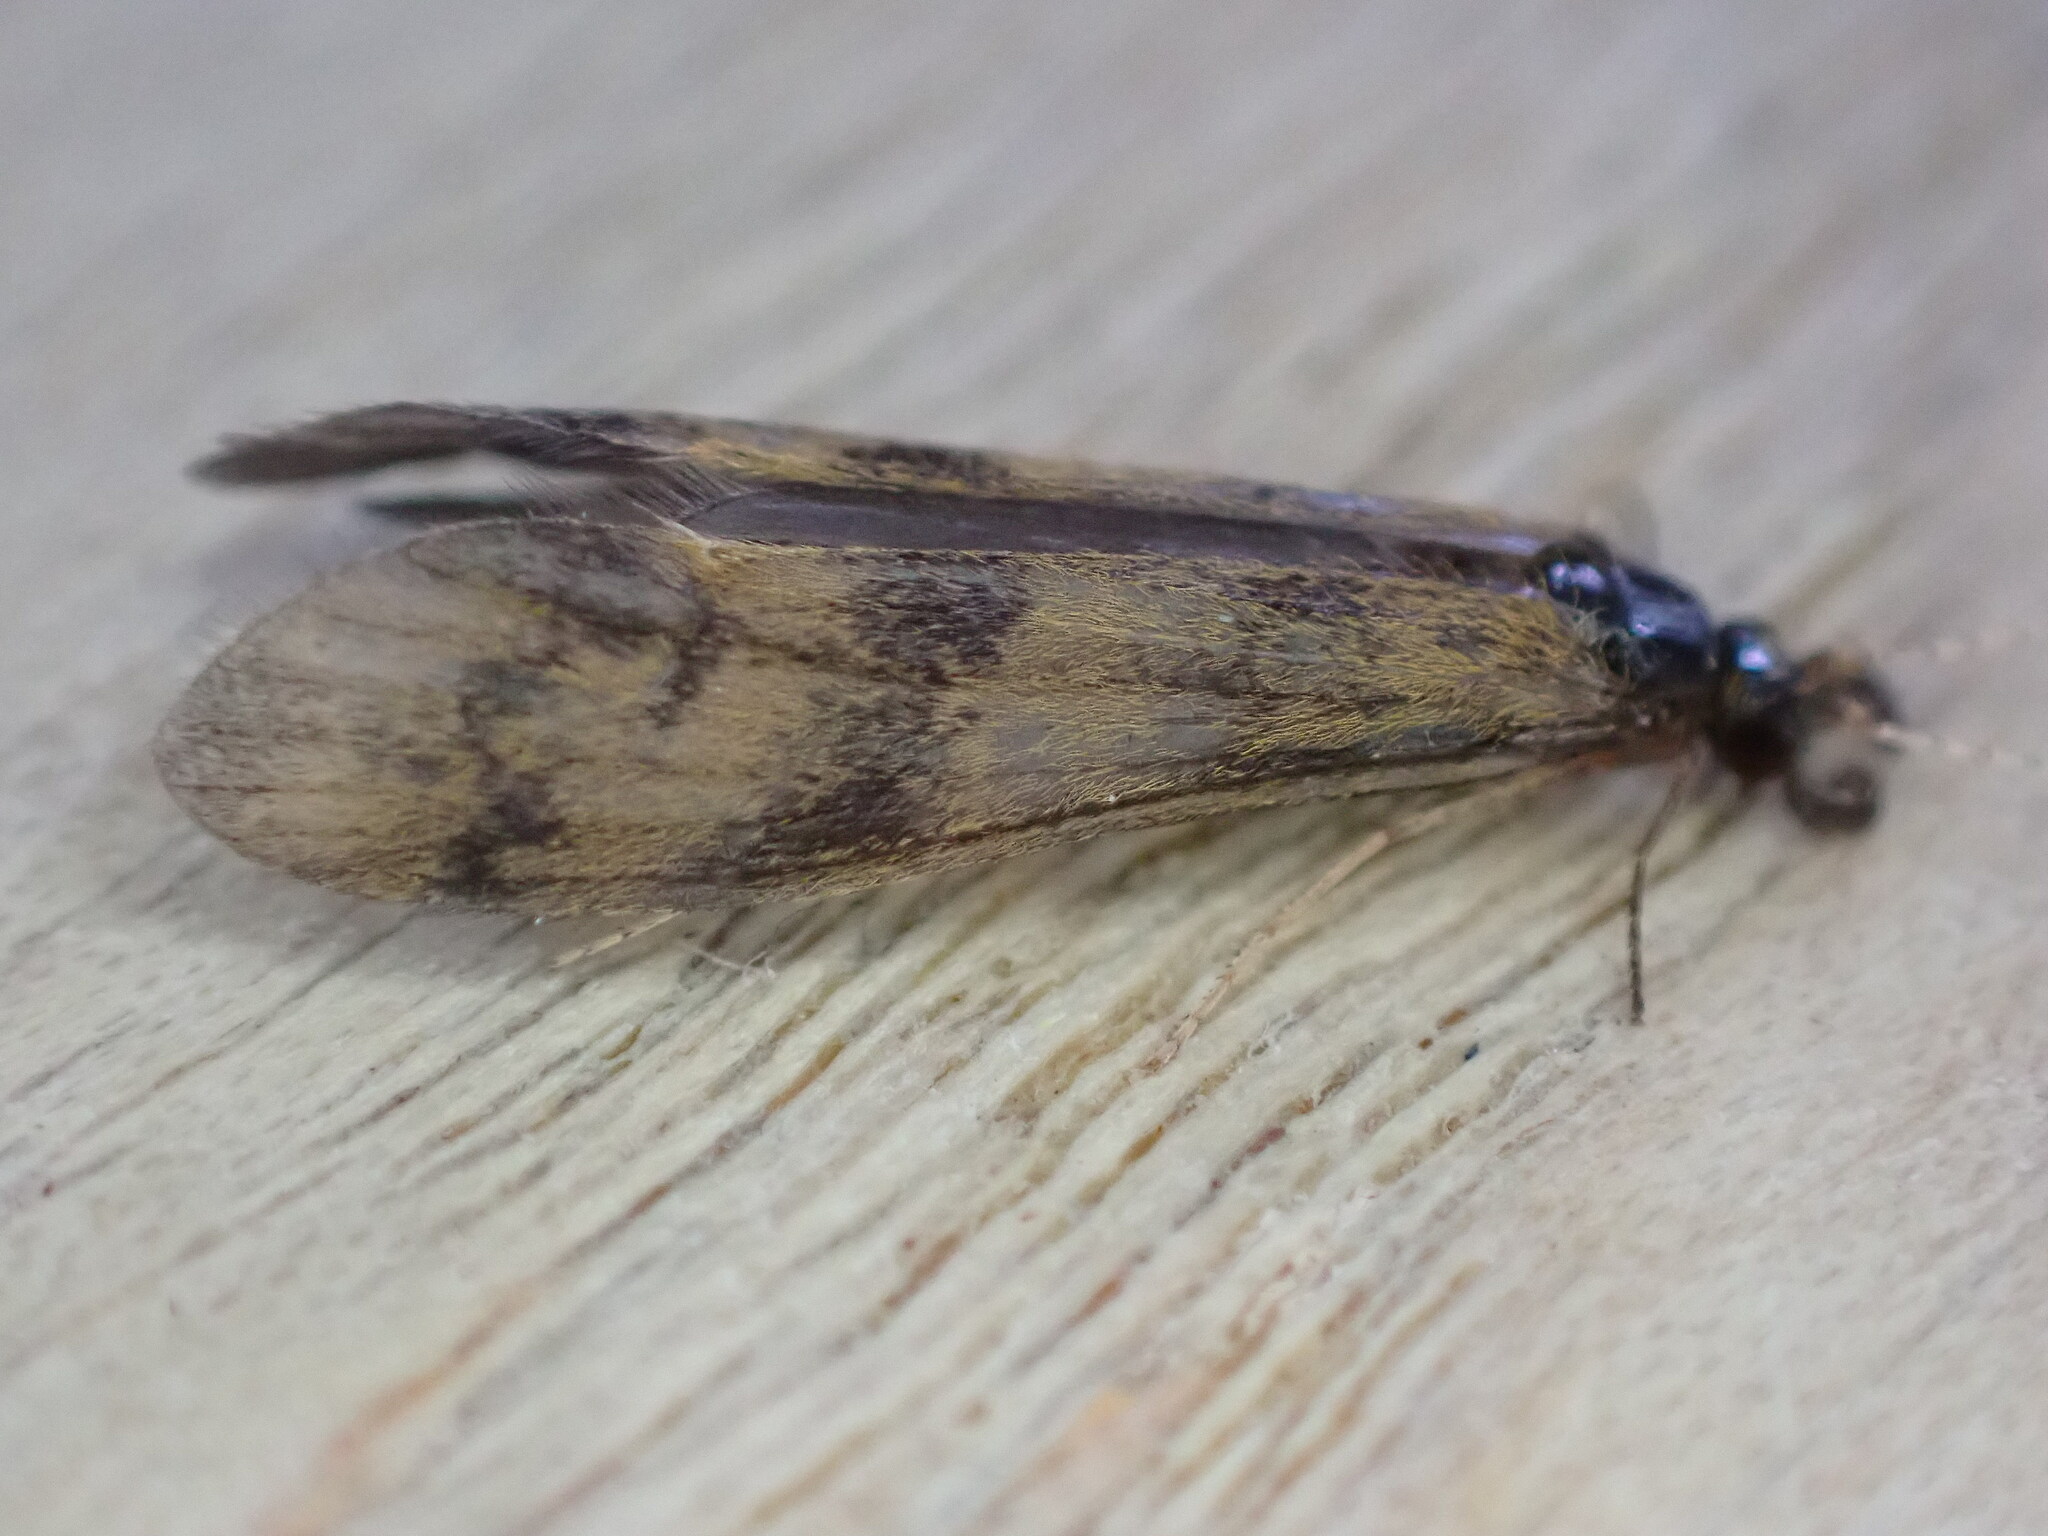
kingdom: Animalia
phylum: Arthropoda
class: Insecta
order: Trichoptera
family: Leptoceridae
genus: Mystacides
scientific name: Mystacides longicornis
